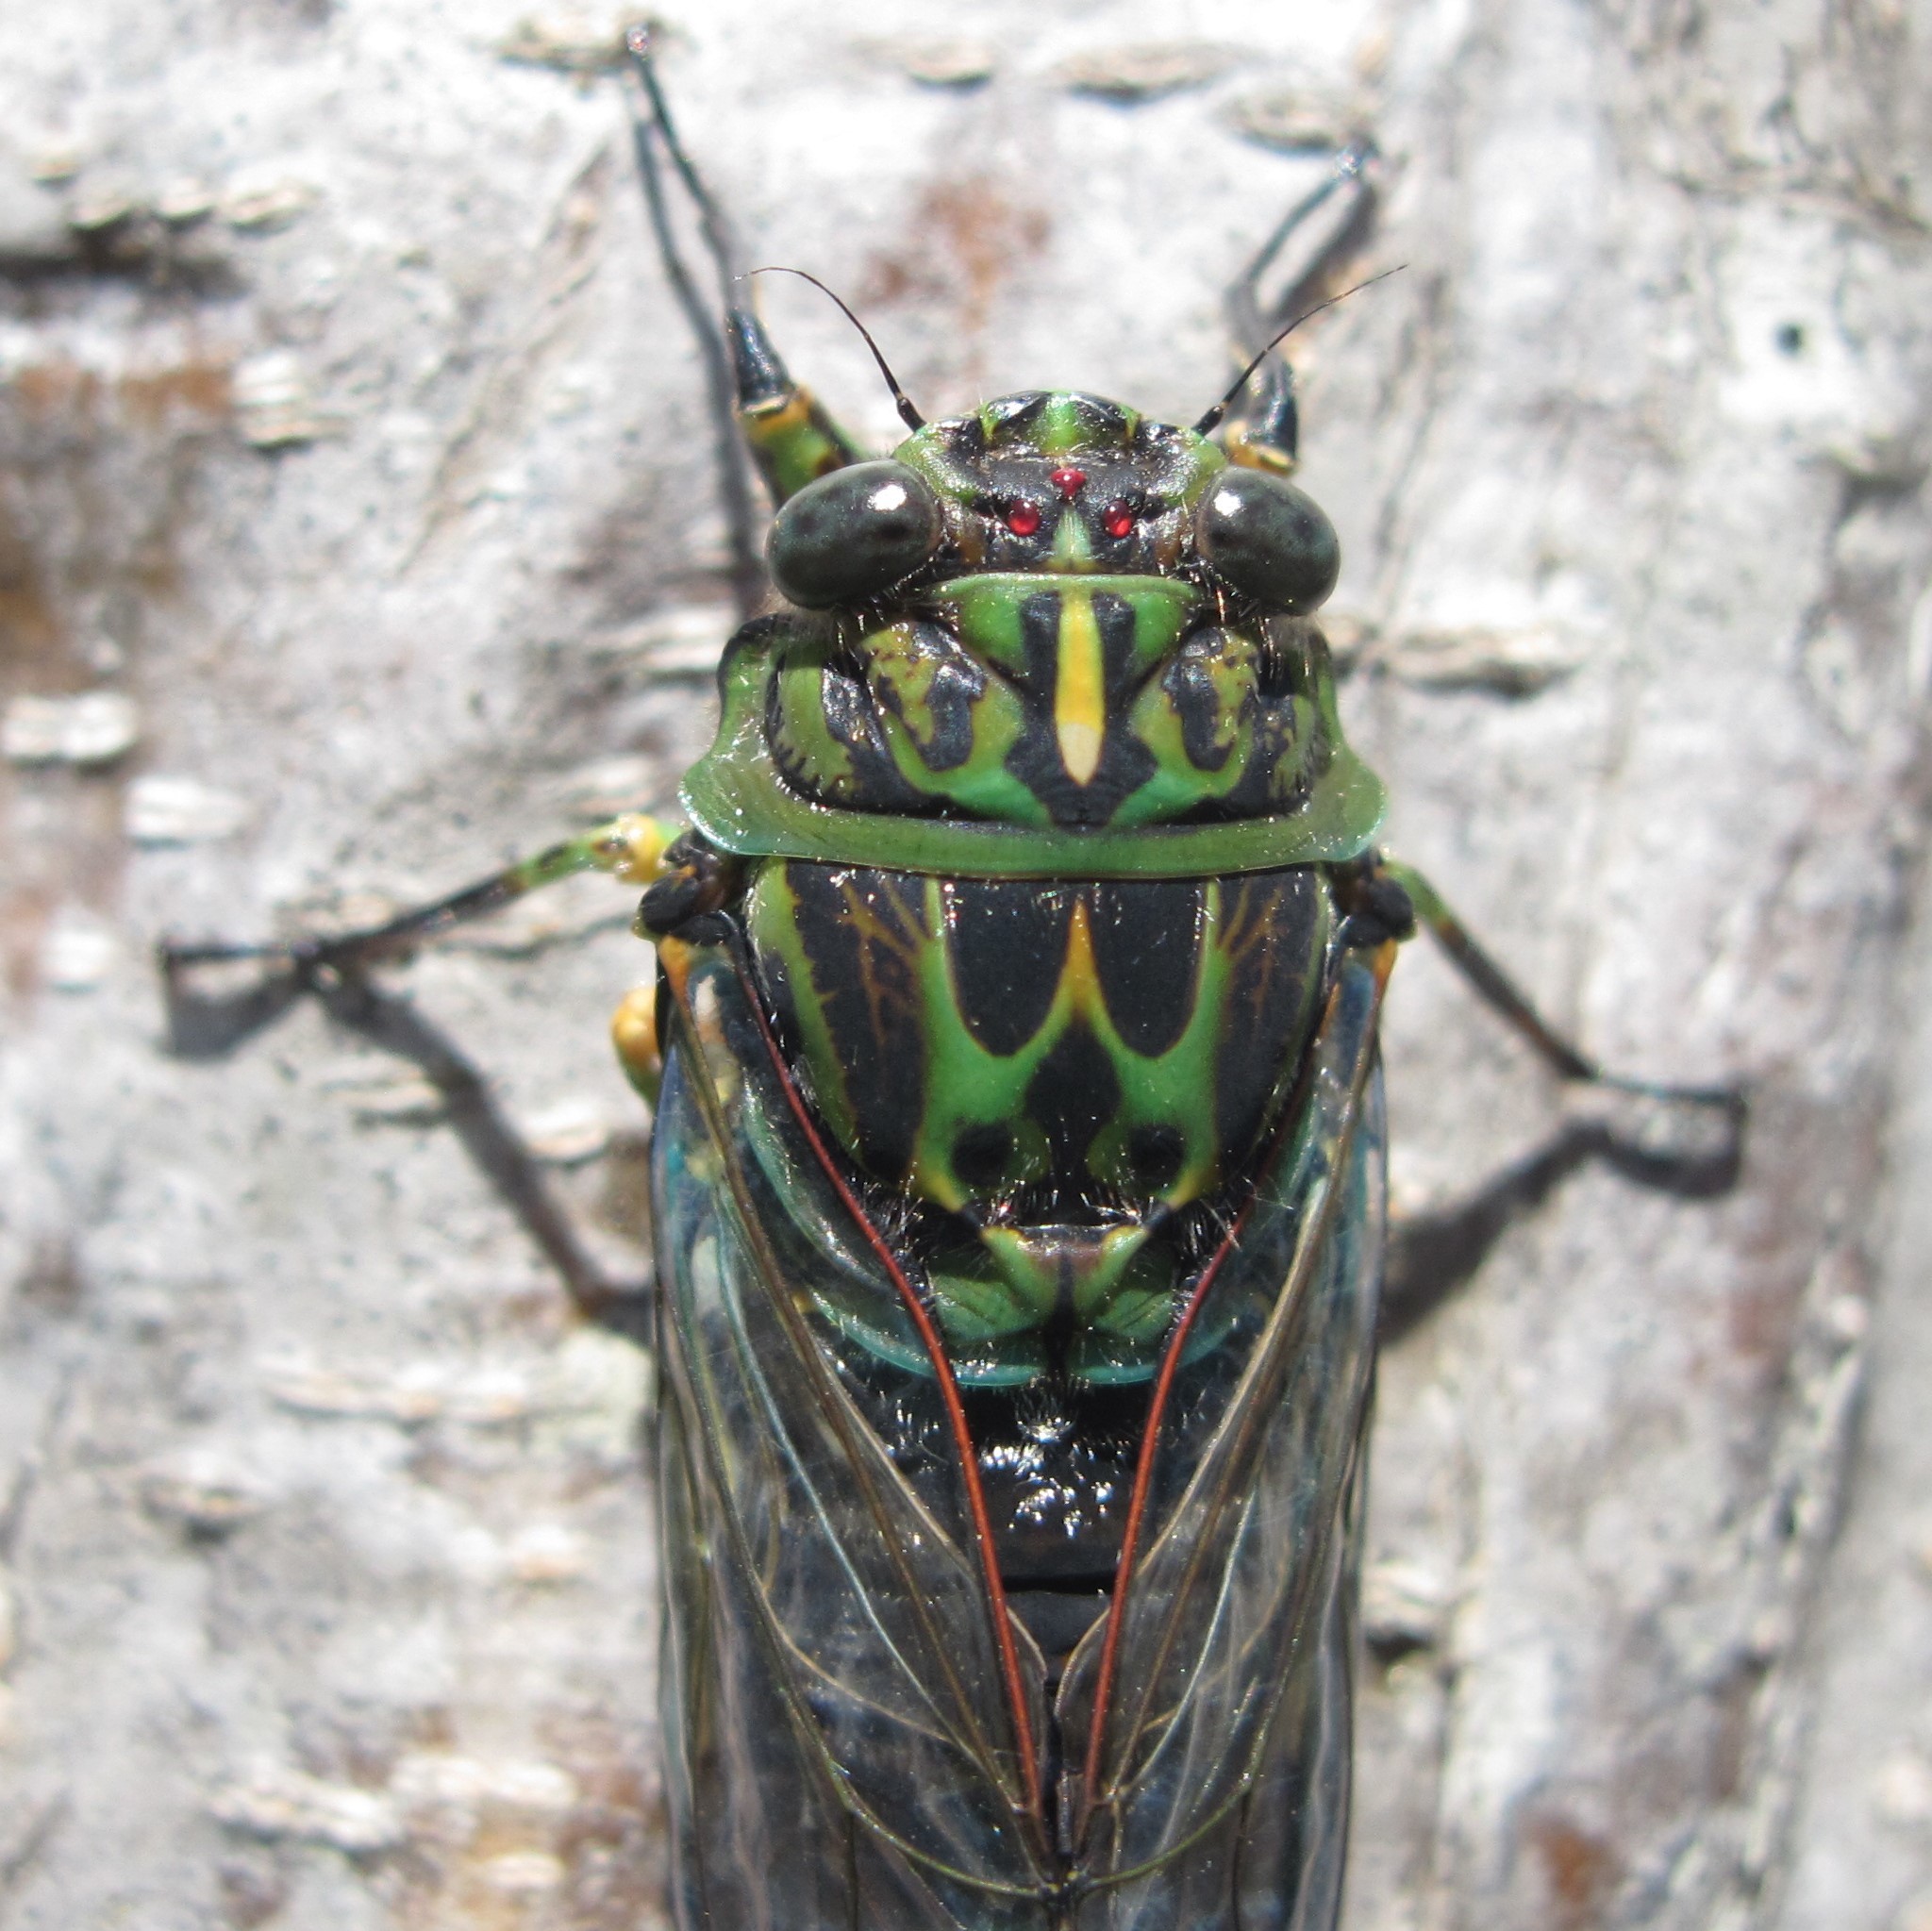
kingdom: Animalia
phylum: Arthropoda
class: Insecta
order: Hemiptera
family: Cicadidae
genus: Amphipsalta
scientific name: Amphipsalta zelandica
